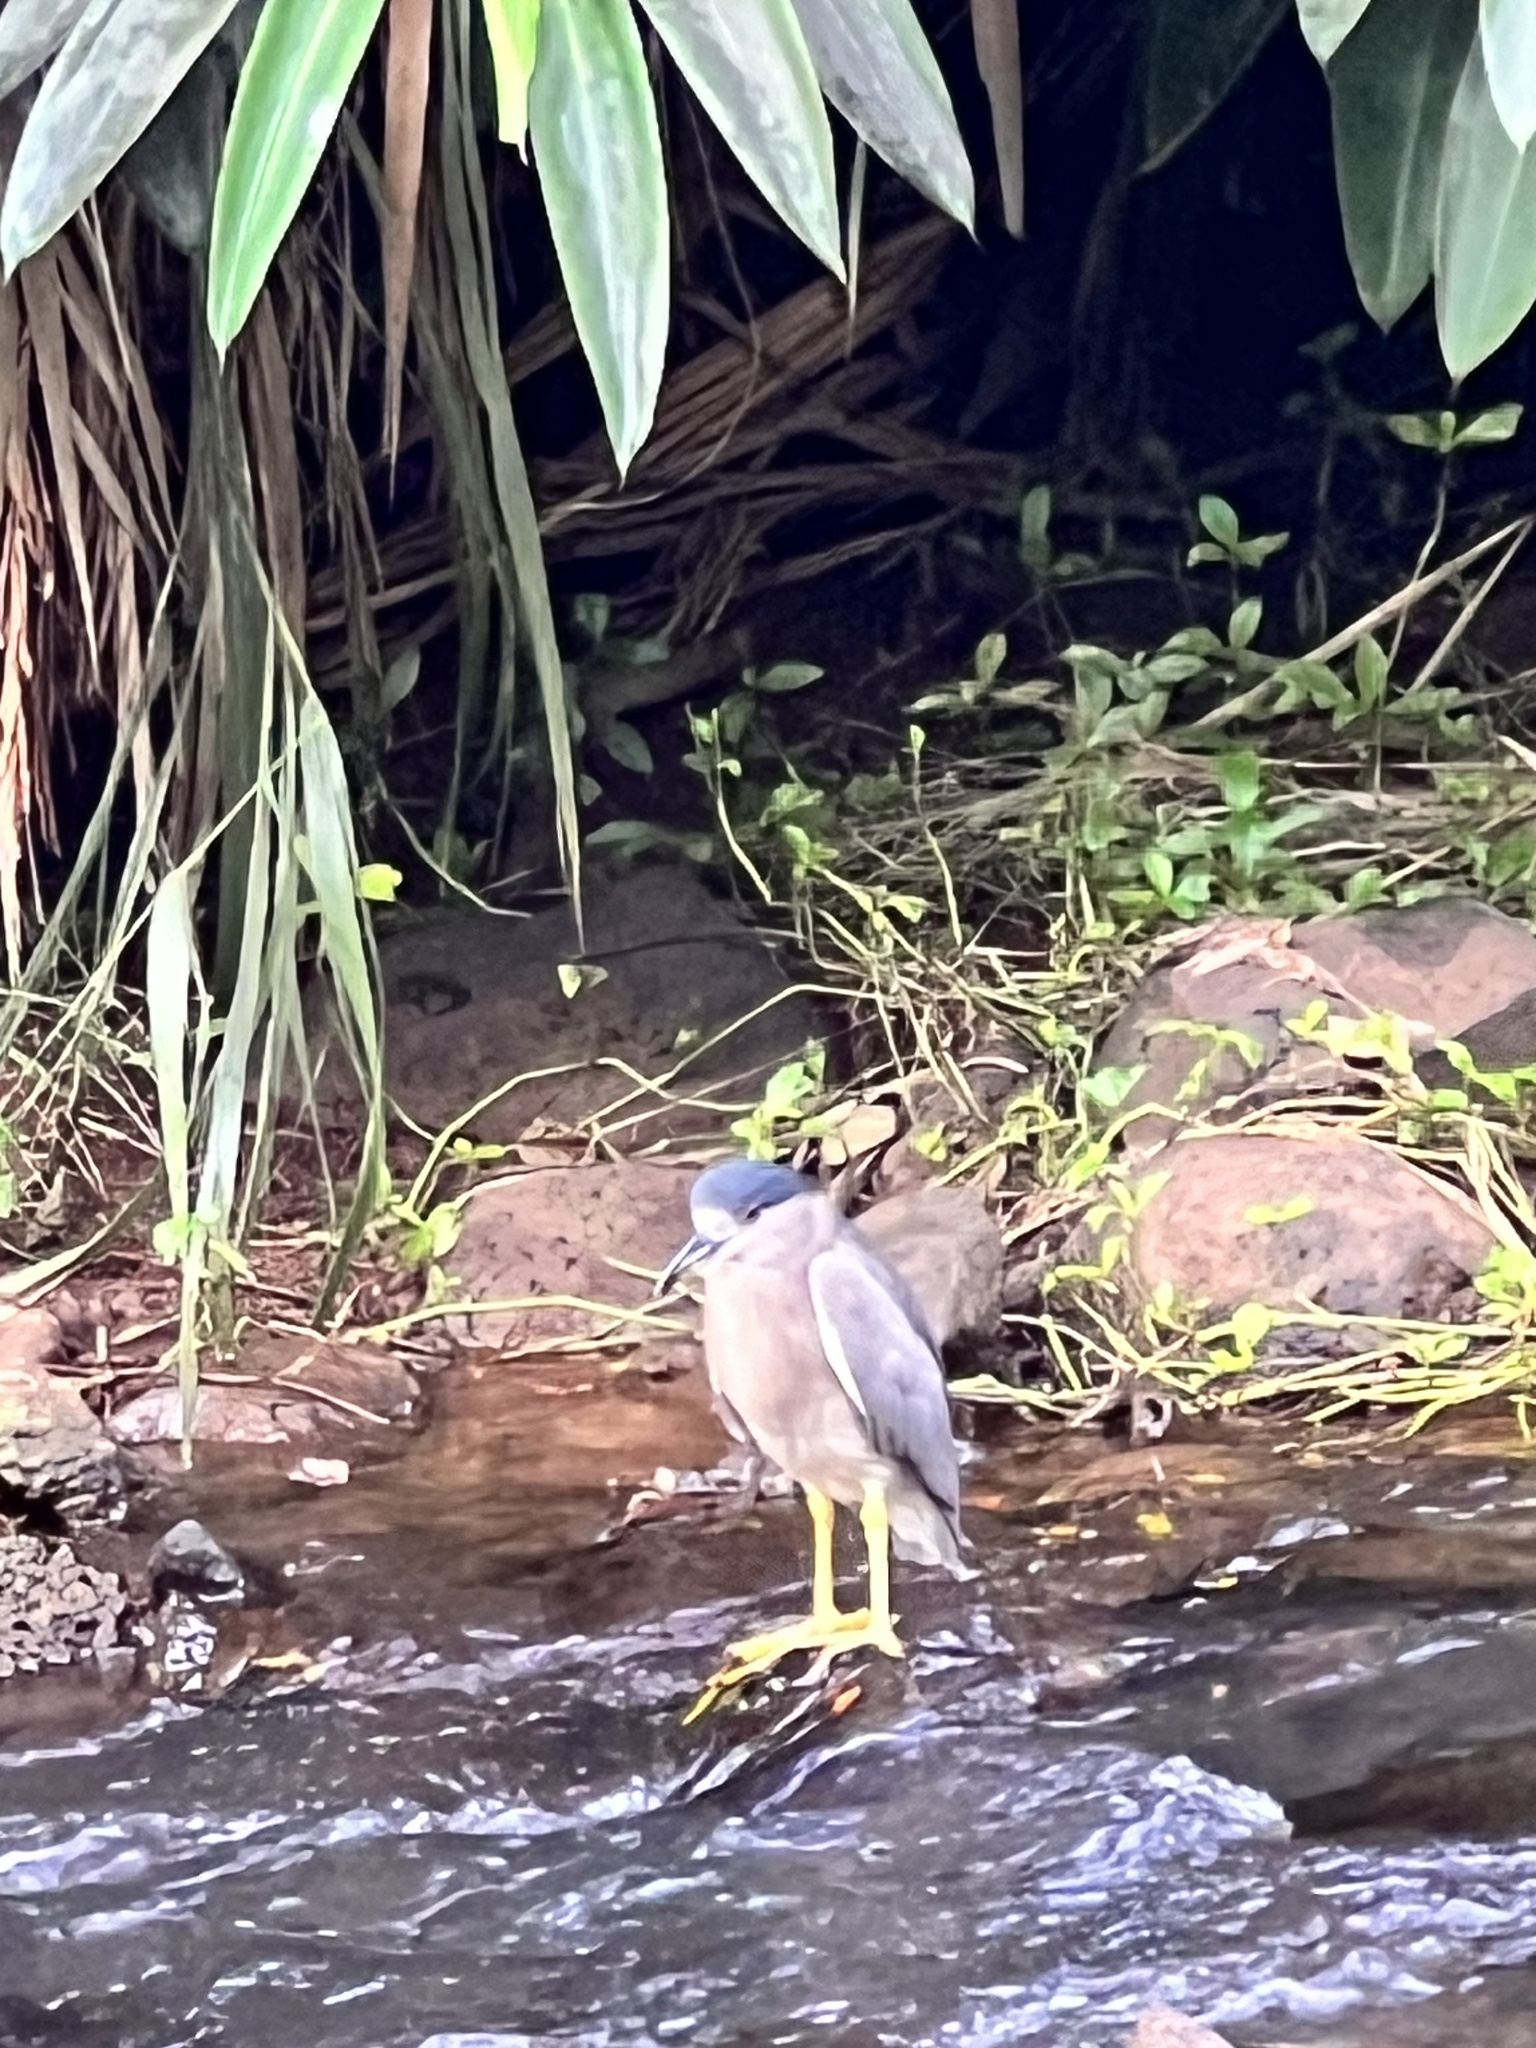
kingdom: Animalia
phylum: Chordata
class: Aves
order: Pelecaniformes
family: Ardeidae
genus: Nycticorax
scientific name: Nycticorax nycticorax
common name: Black-crowned night heron
